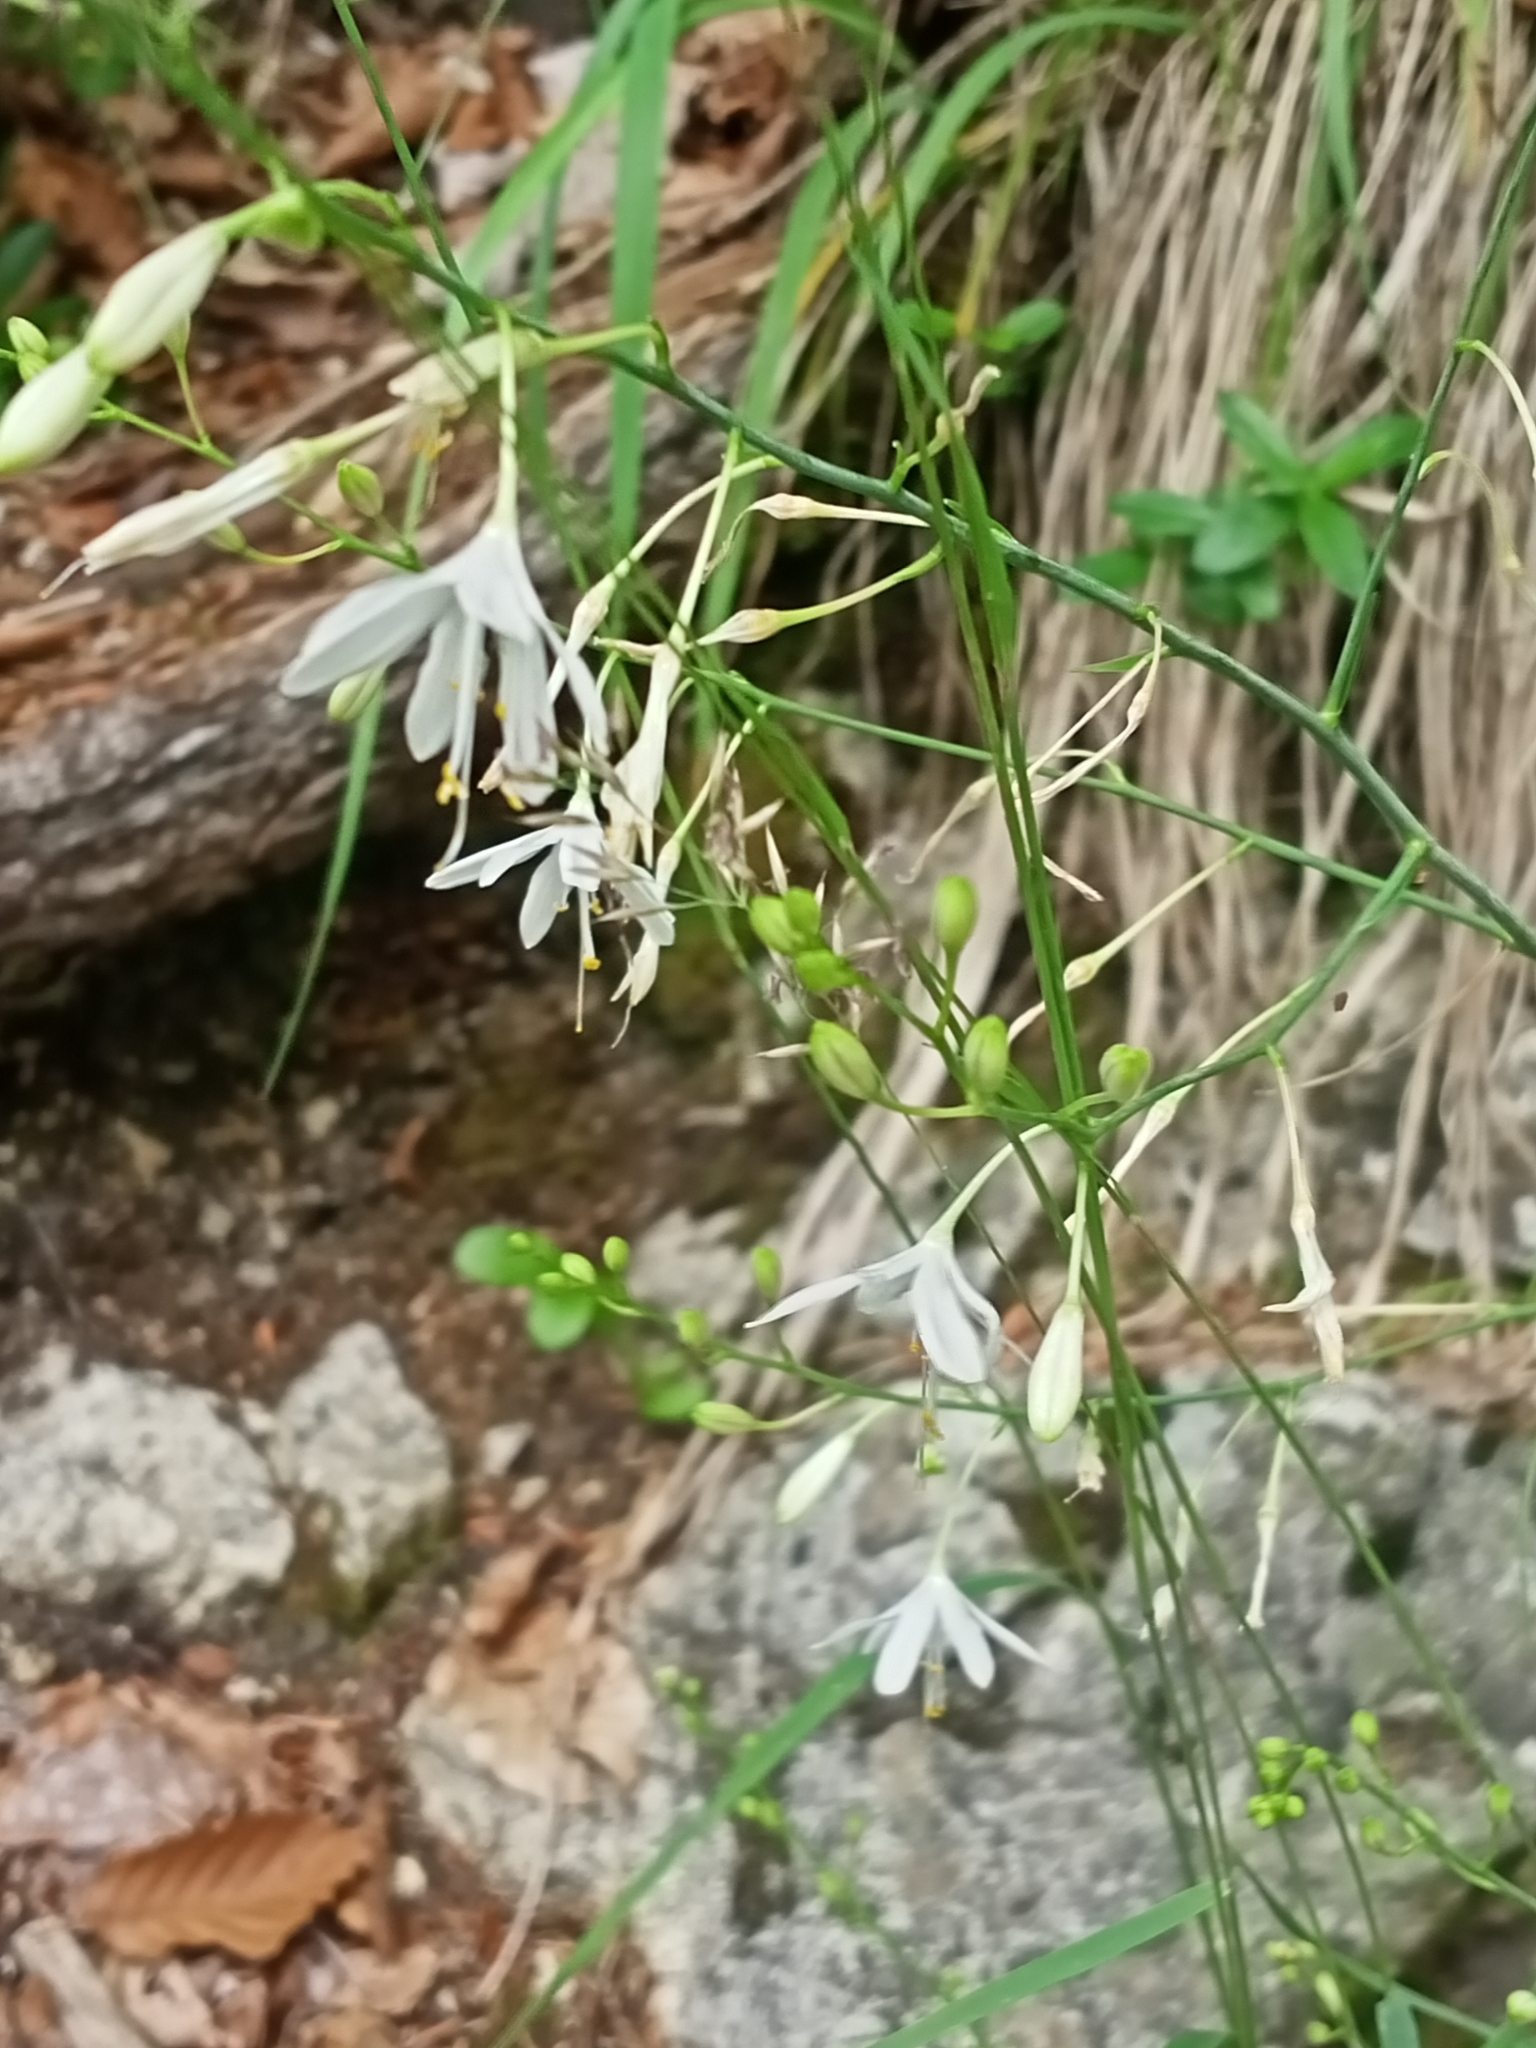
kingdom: Plantae
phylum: Tracheophyta
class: Liliopsida
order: Asparagales
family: Asparagaceae
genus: Anthericum
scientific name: Anthericum ramosum
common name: Branched st. bernard's-lily
